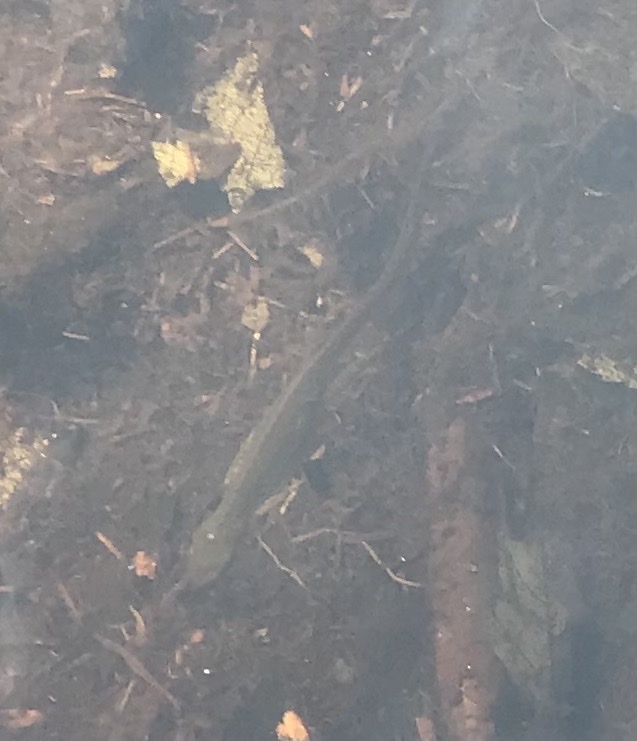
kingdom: Animalia
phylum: Chordata
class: Amphibia
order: Caudata
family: Salamandridae
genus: Notophthalmus
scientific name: Notophthalmus viridescens
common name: Eastern newt
